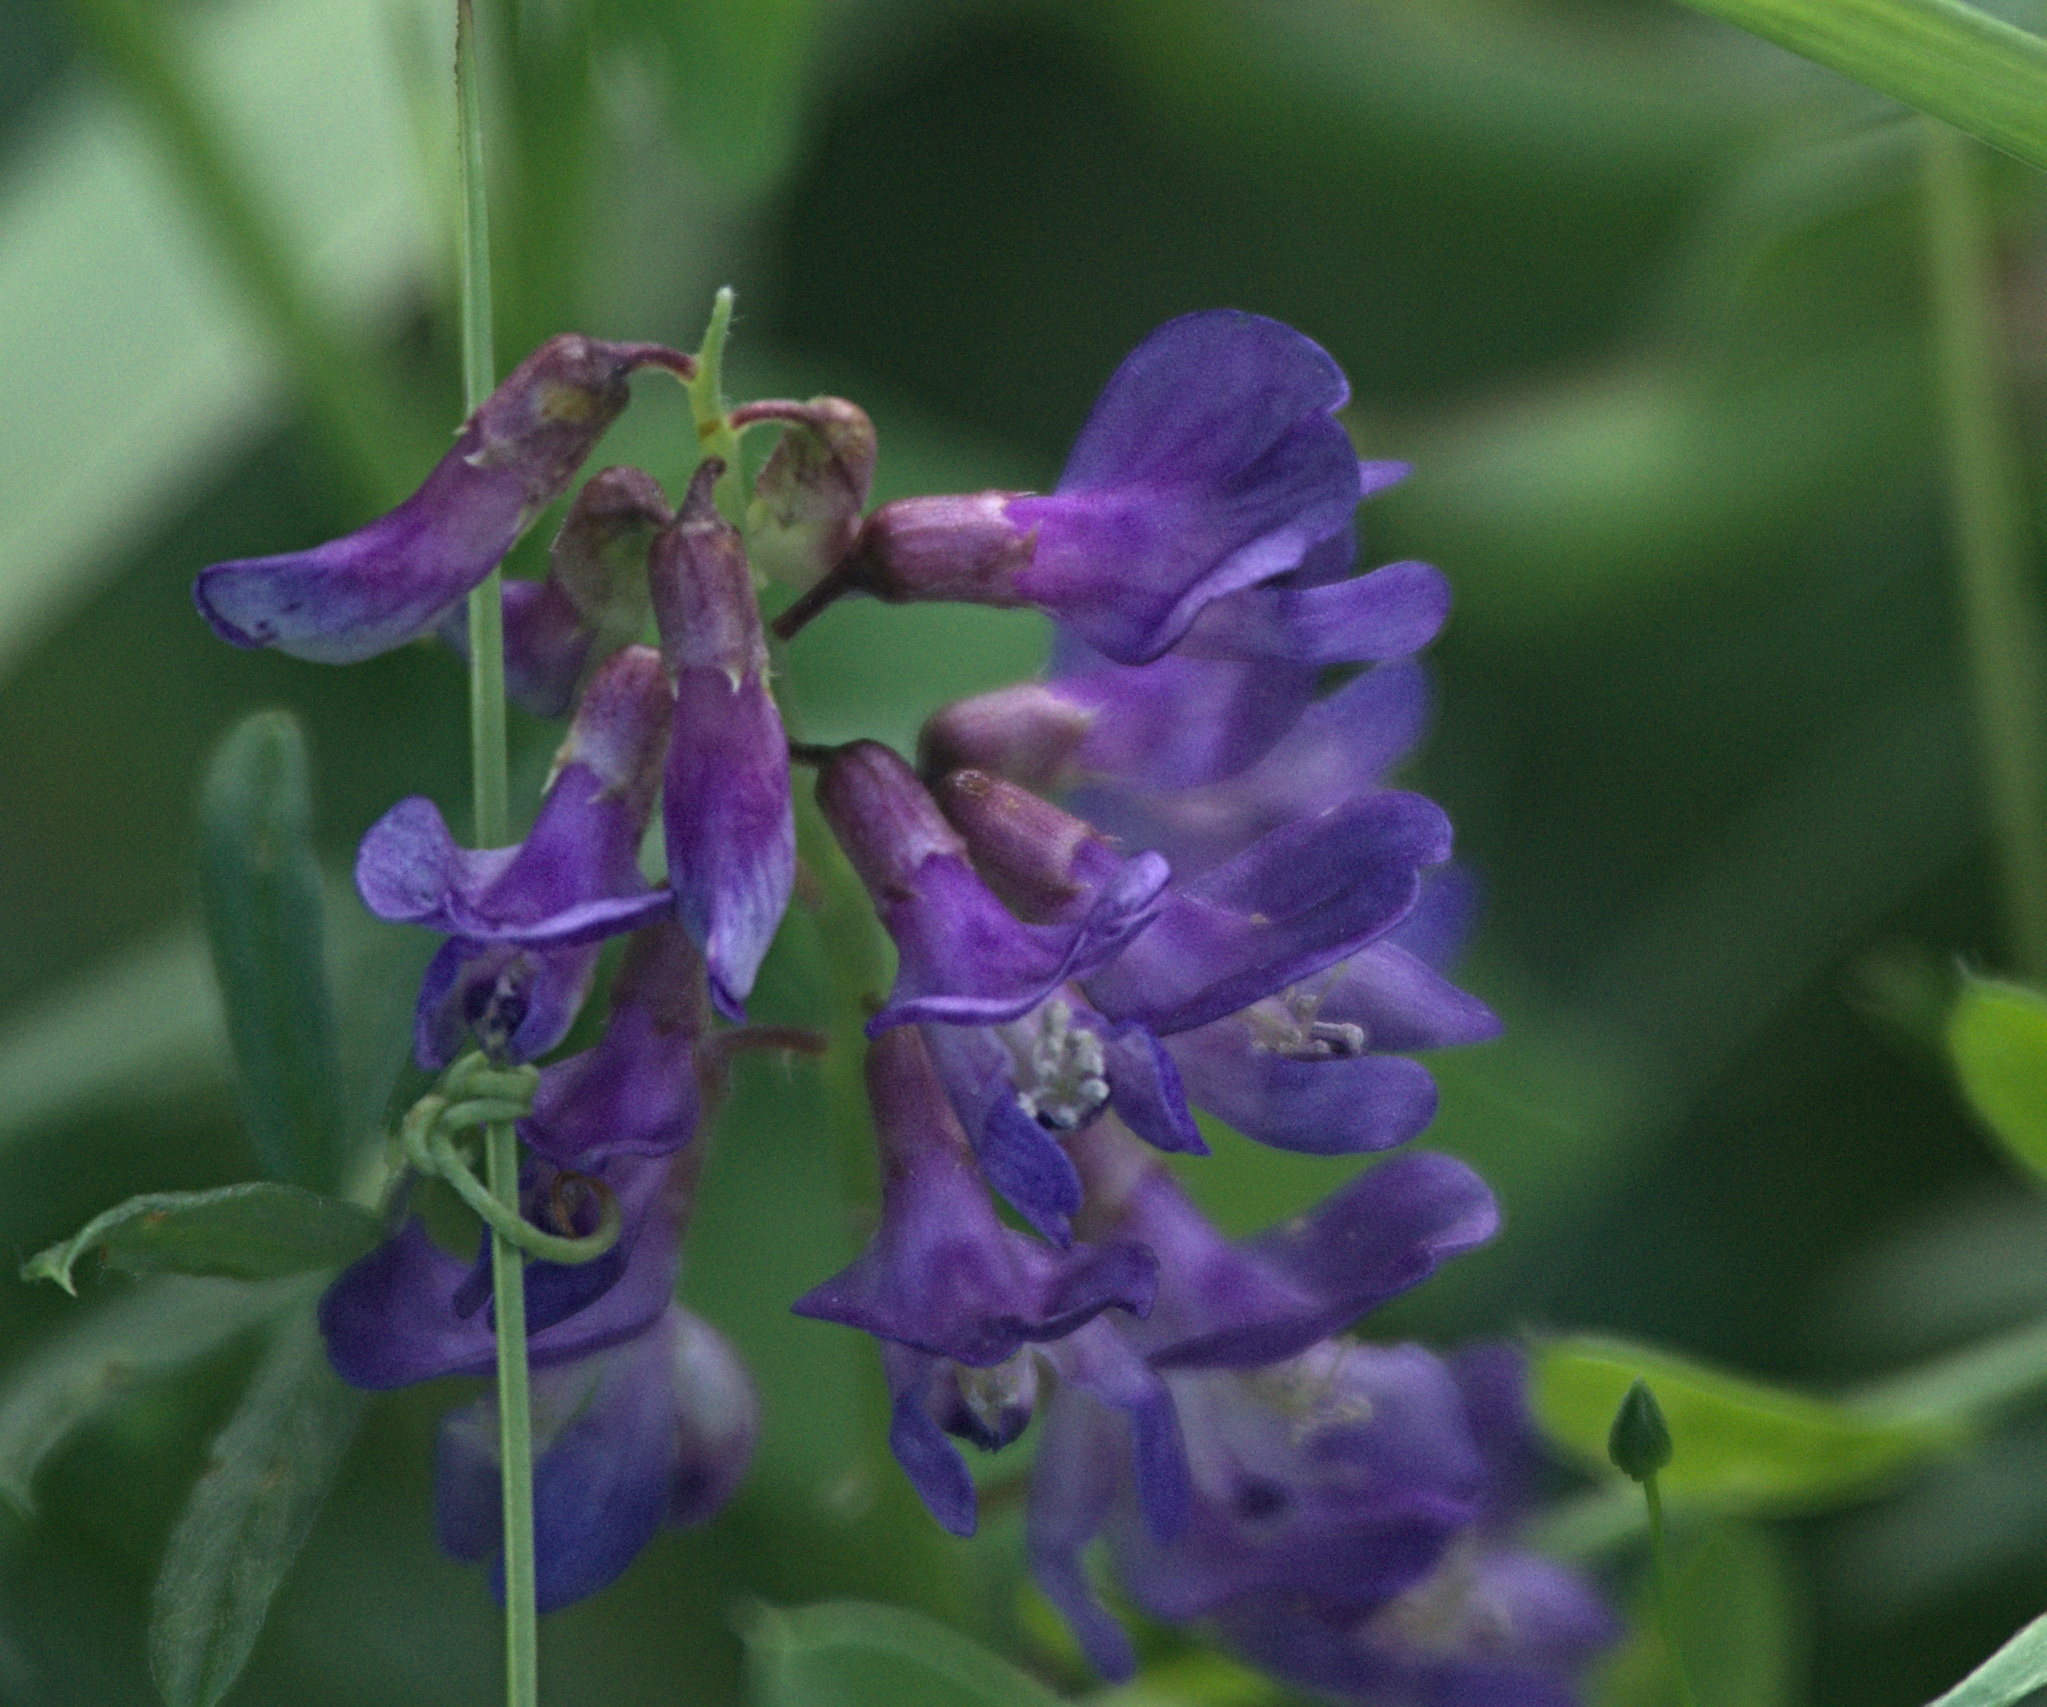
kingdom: Plantae
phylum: Tracheophyta
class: Magnoliopsida
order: Fabales
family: Fabaceae
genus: Vicia
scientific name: Vicia amoena
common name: Cheder ebs
